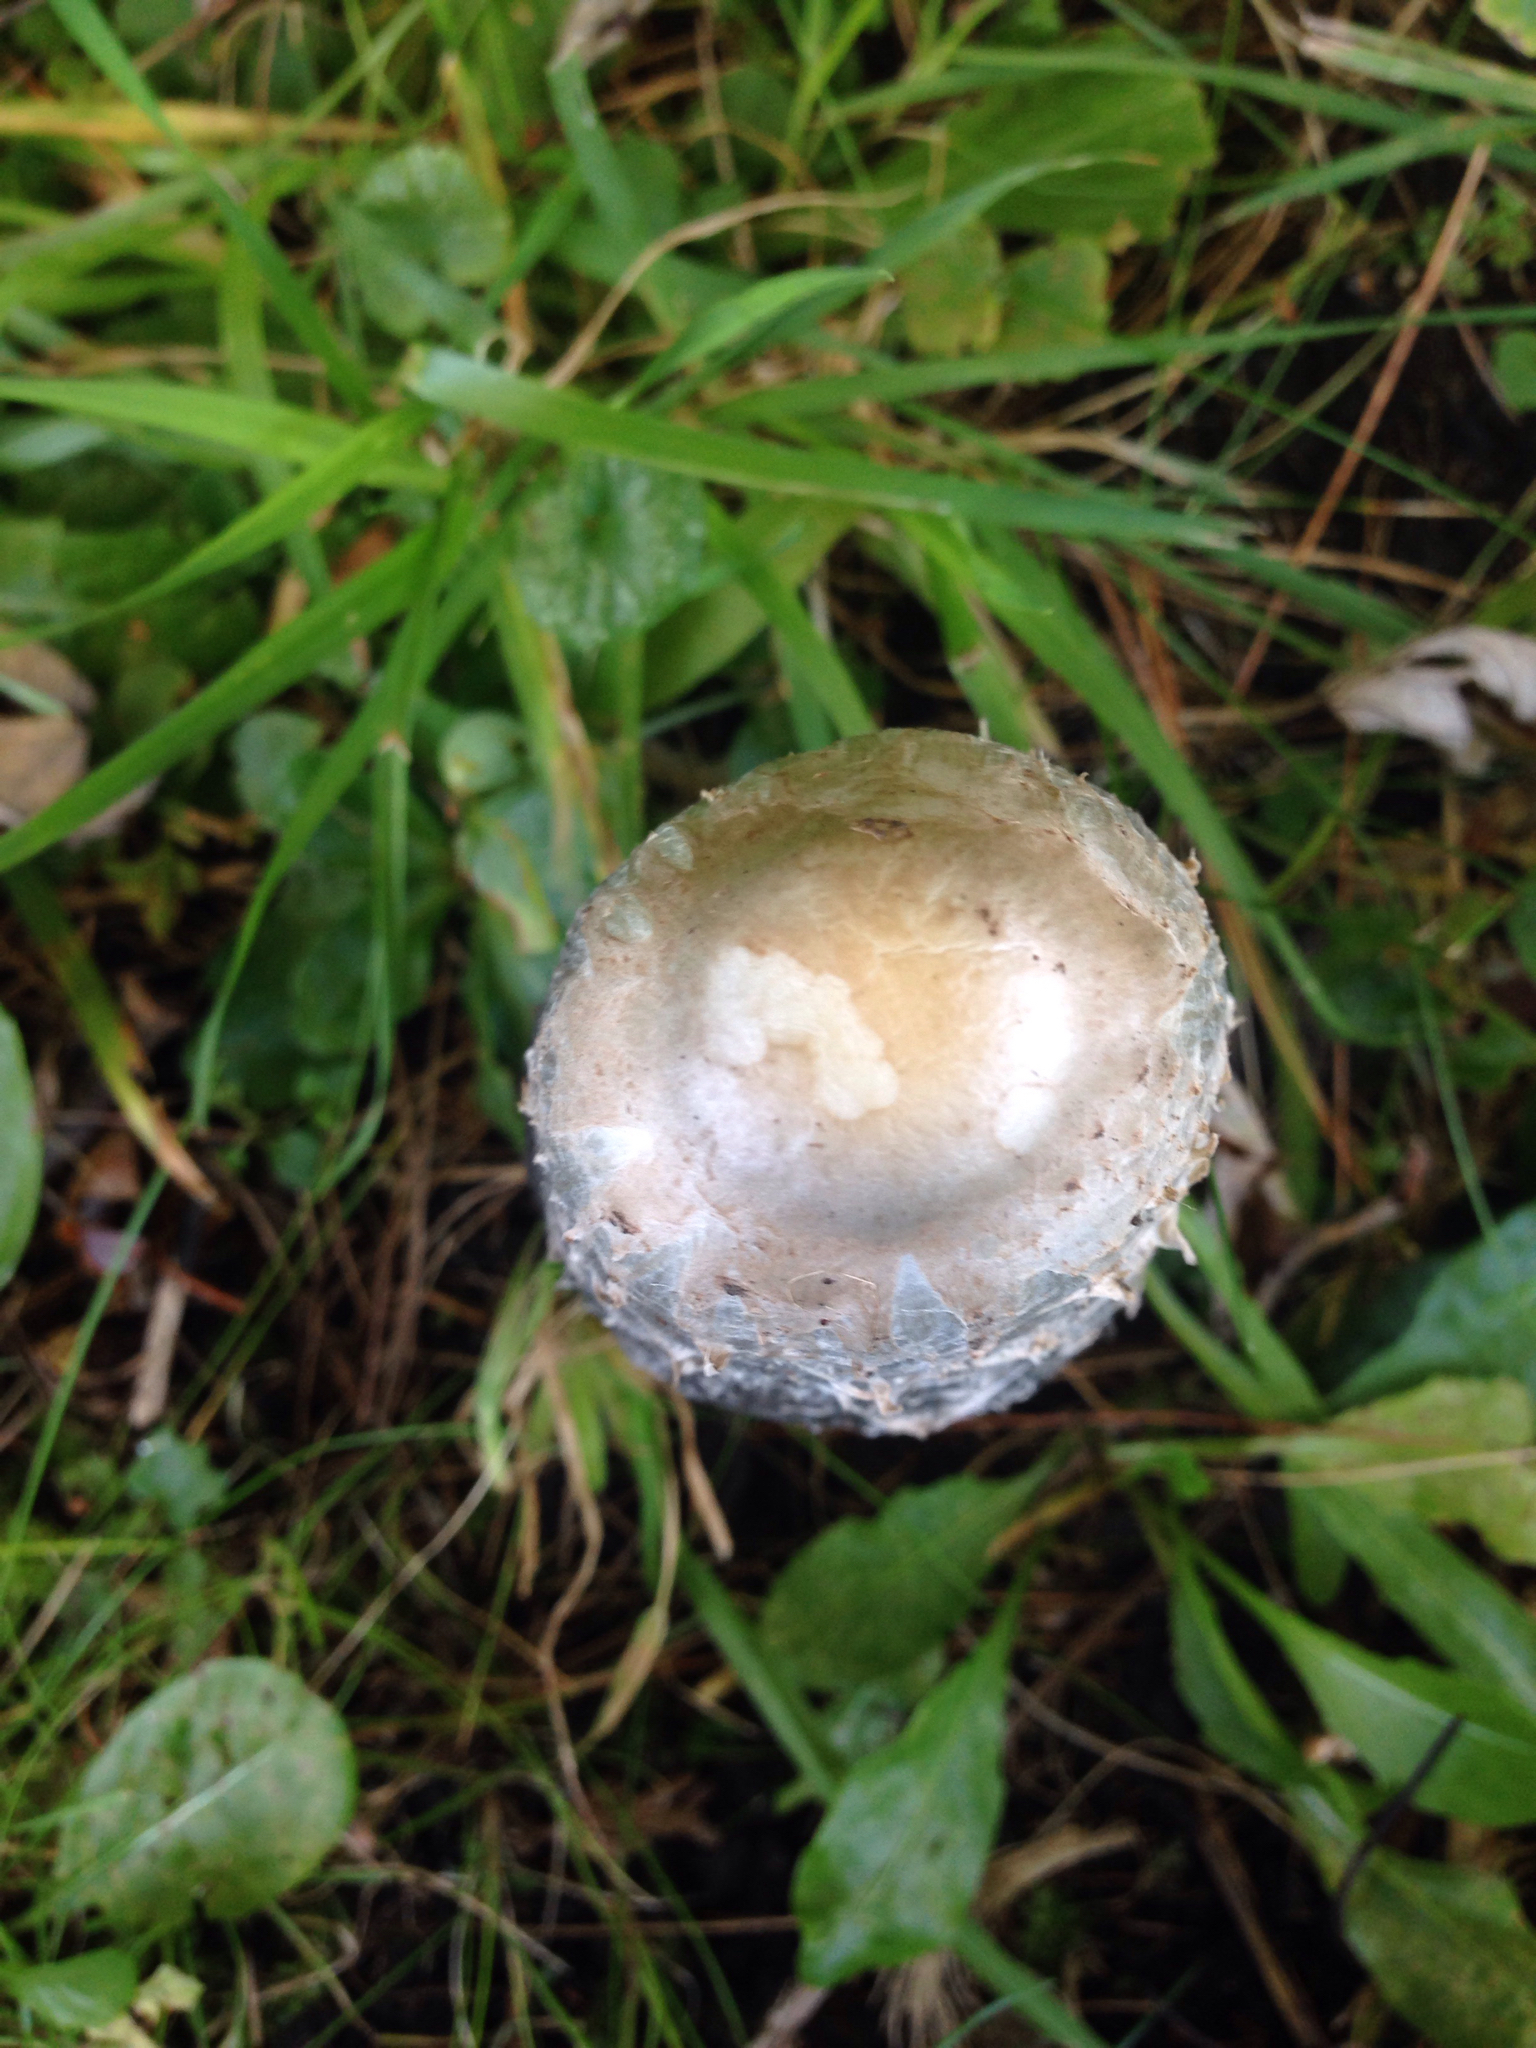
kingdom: Fungi
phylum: Basidiomycota
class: Agaricomycetes
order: Agaricales
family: Agaricaceae
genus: Coprinus
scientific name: Coprinus comatus
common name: Lawyer's wig
